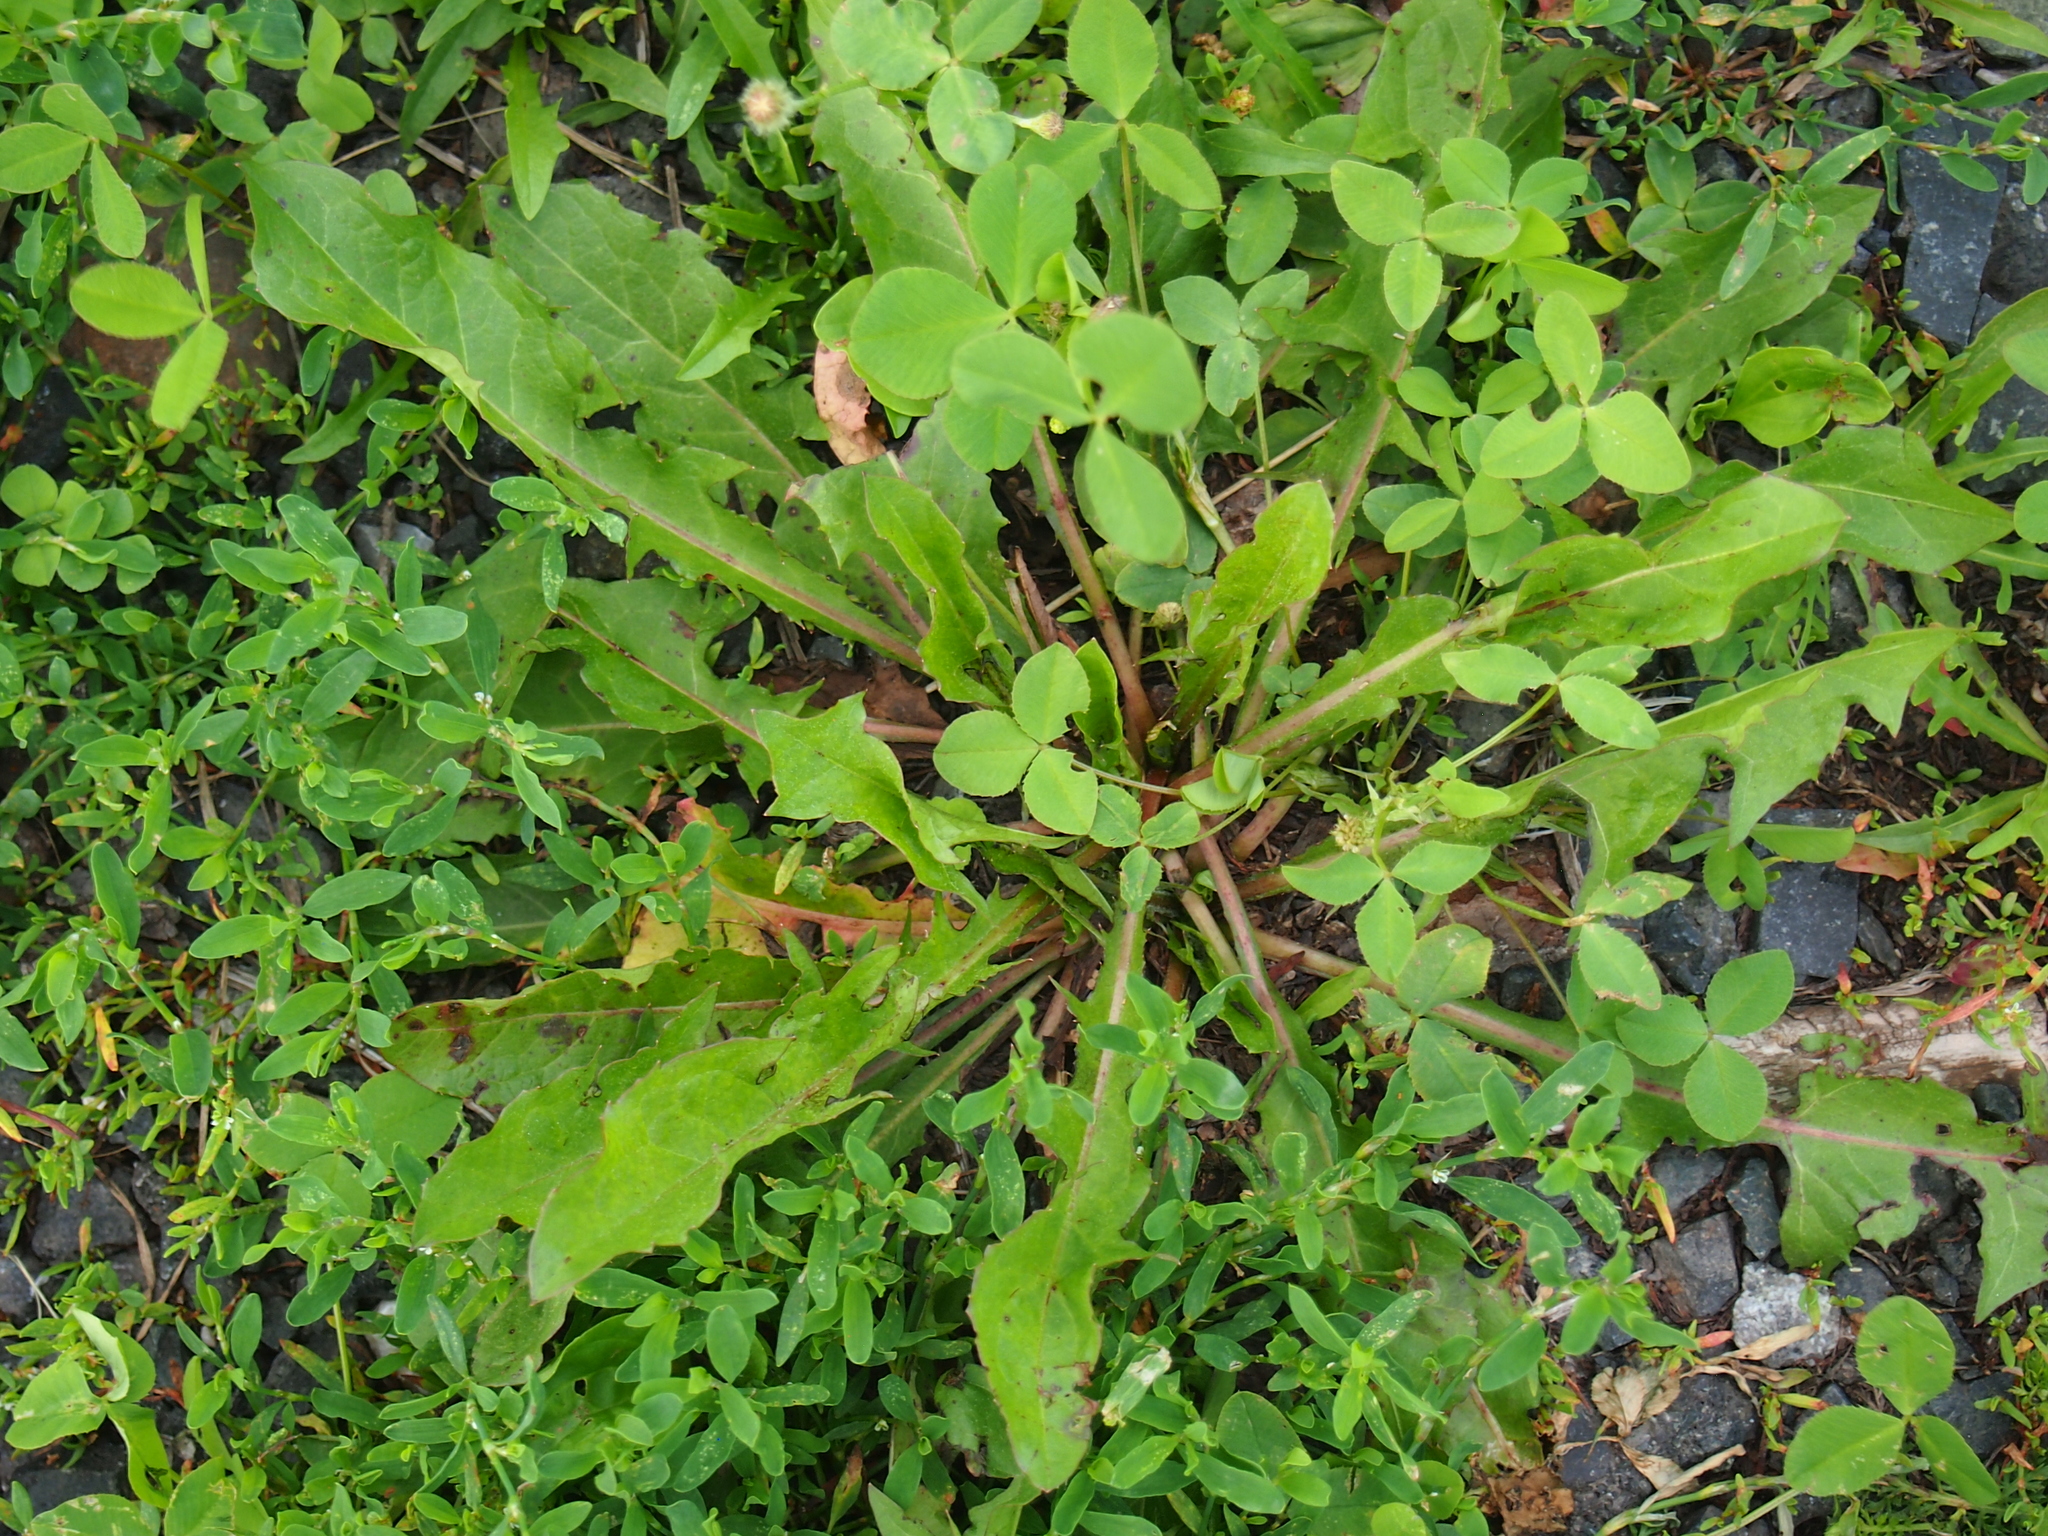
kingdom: Plantae
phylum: Tracheophyta
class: Magnoliopsida
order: Asterales
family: Asteraceae
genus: Taraxacum
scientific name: Taraxacum officinale
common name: Common dandelion
